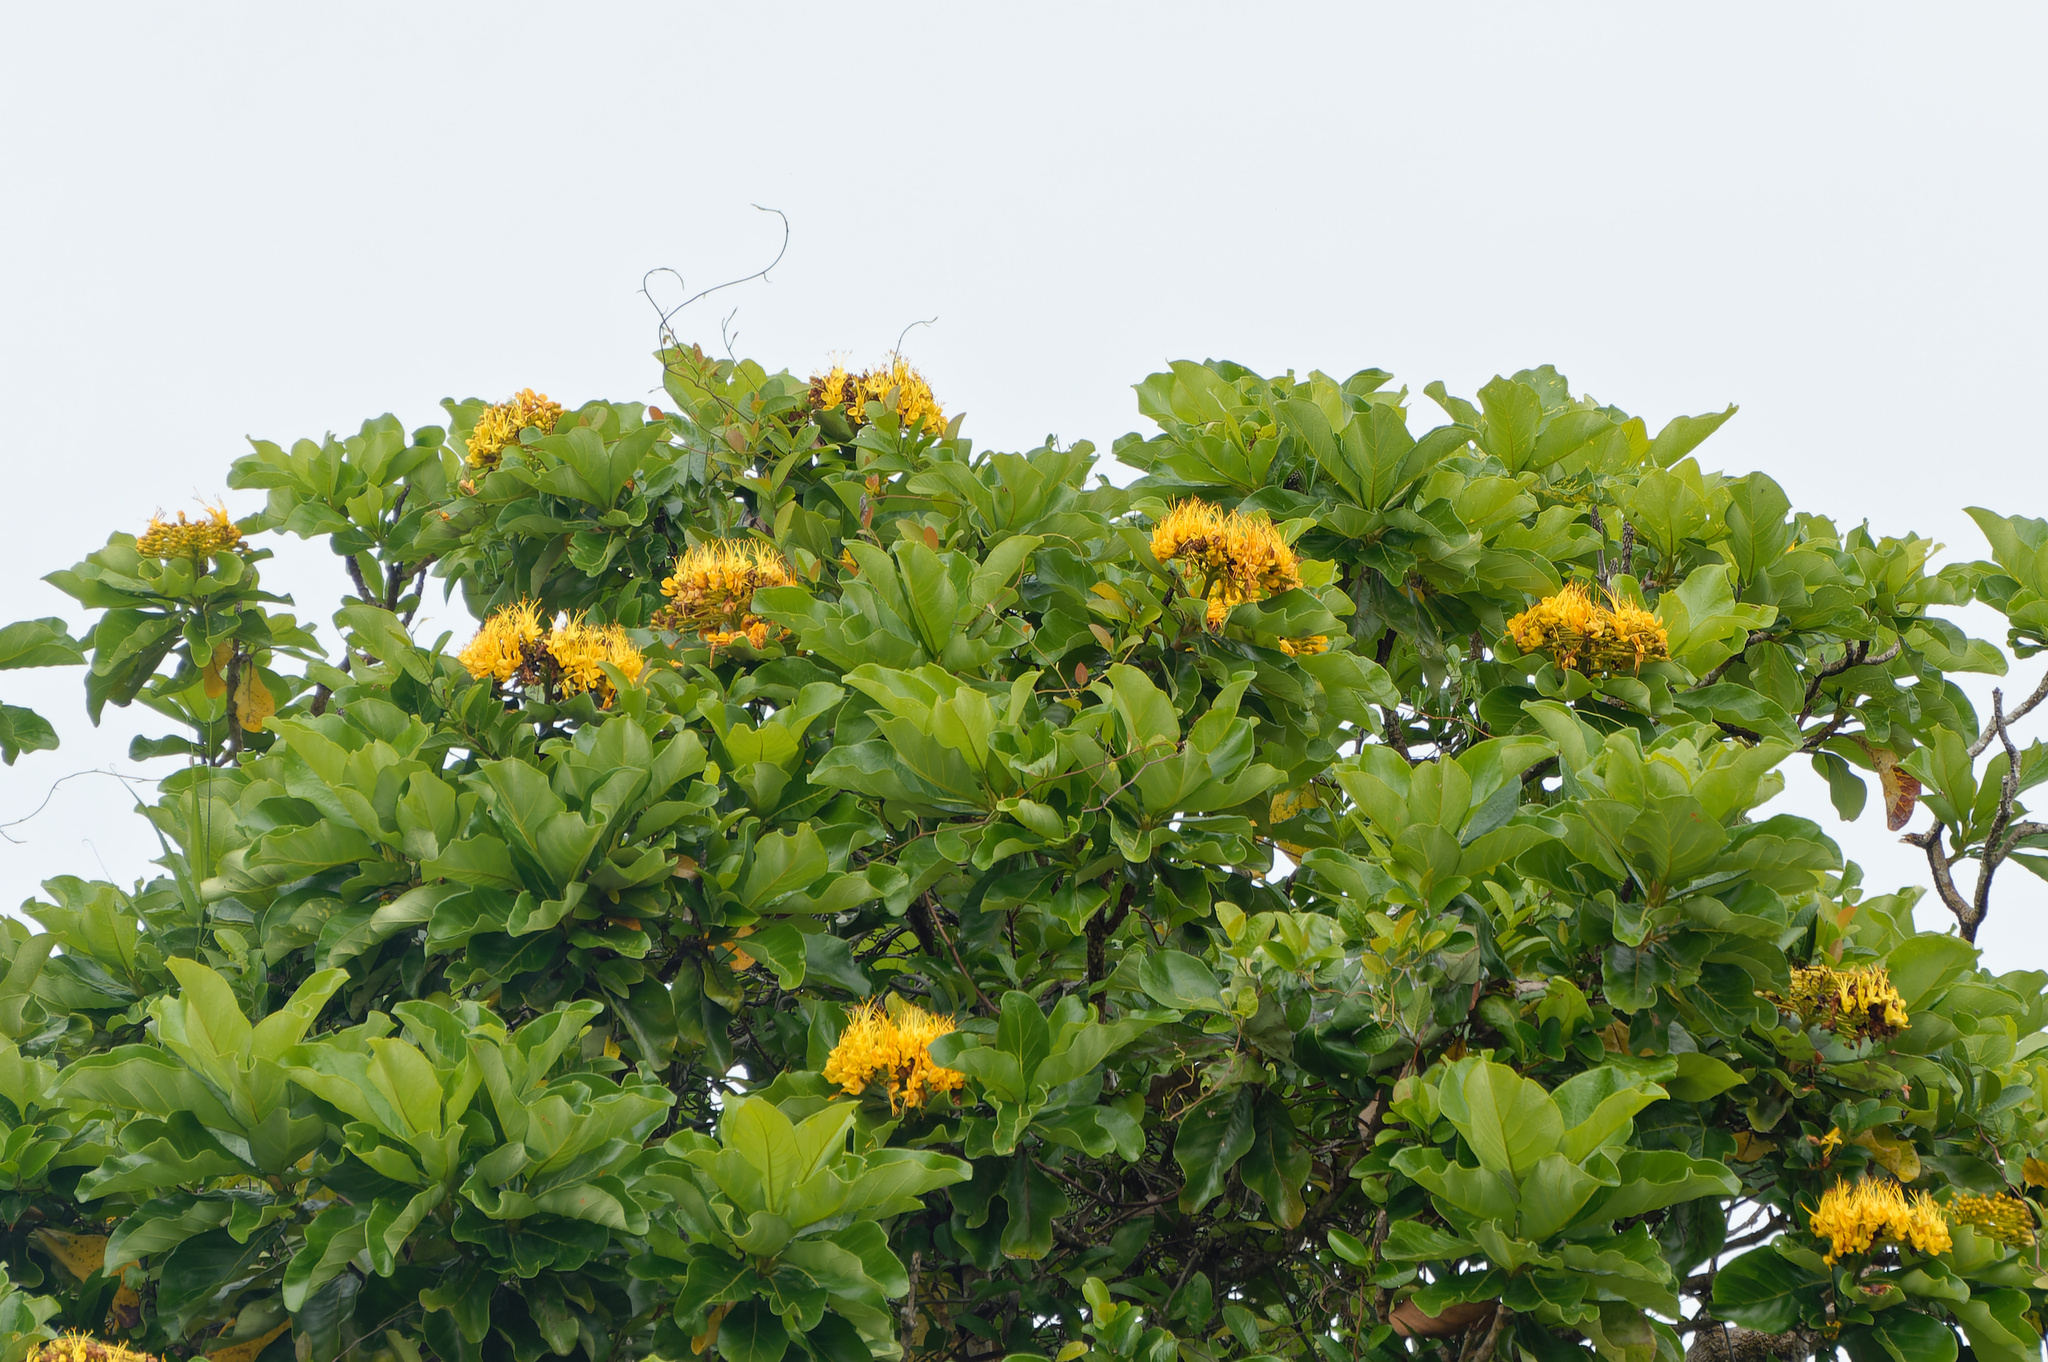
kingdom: Plantae
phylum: Tracheophyta
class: Magnoliopsida
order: Lamiales
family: Bignoniaceae
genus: Deplanchea
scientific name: Deplanchea tetraphylla
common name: Deplanchea
